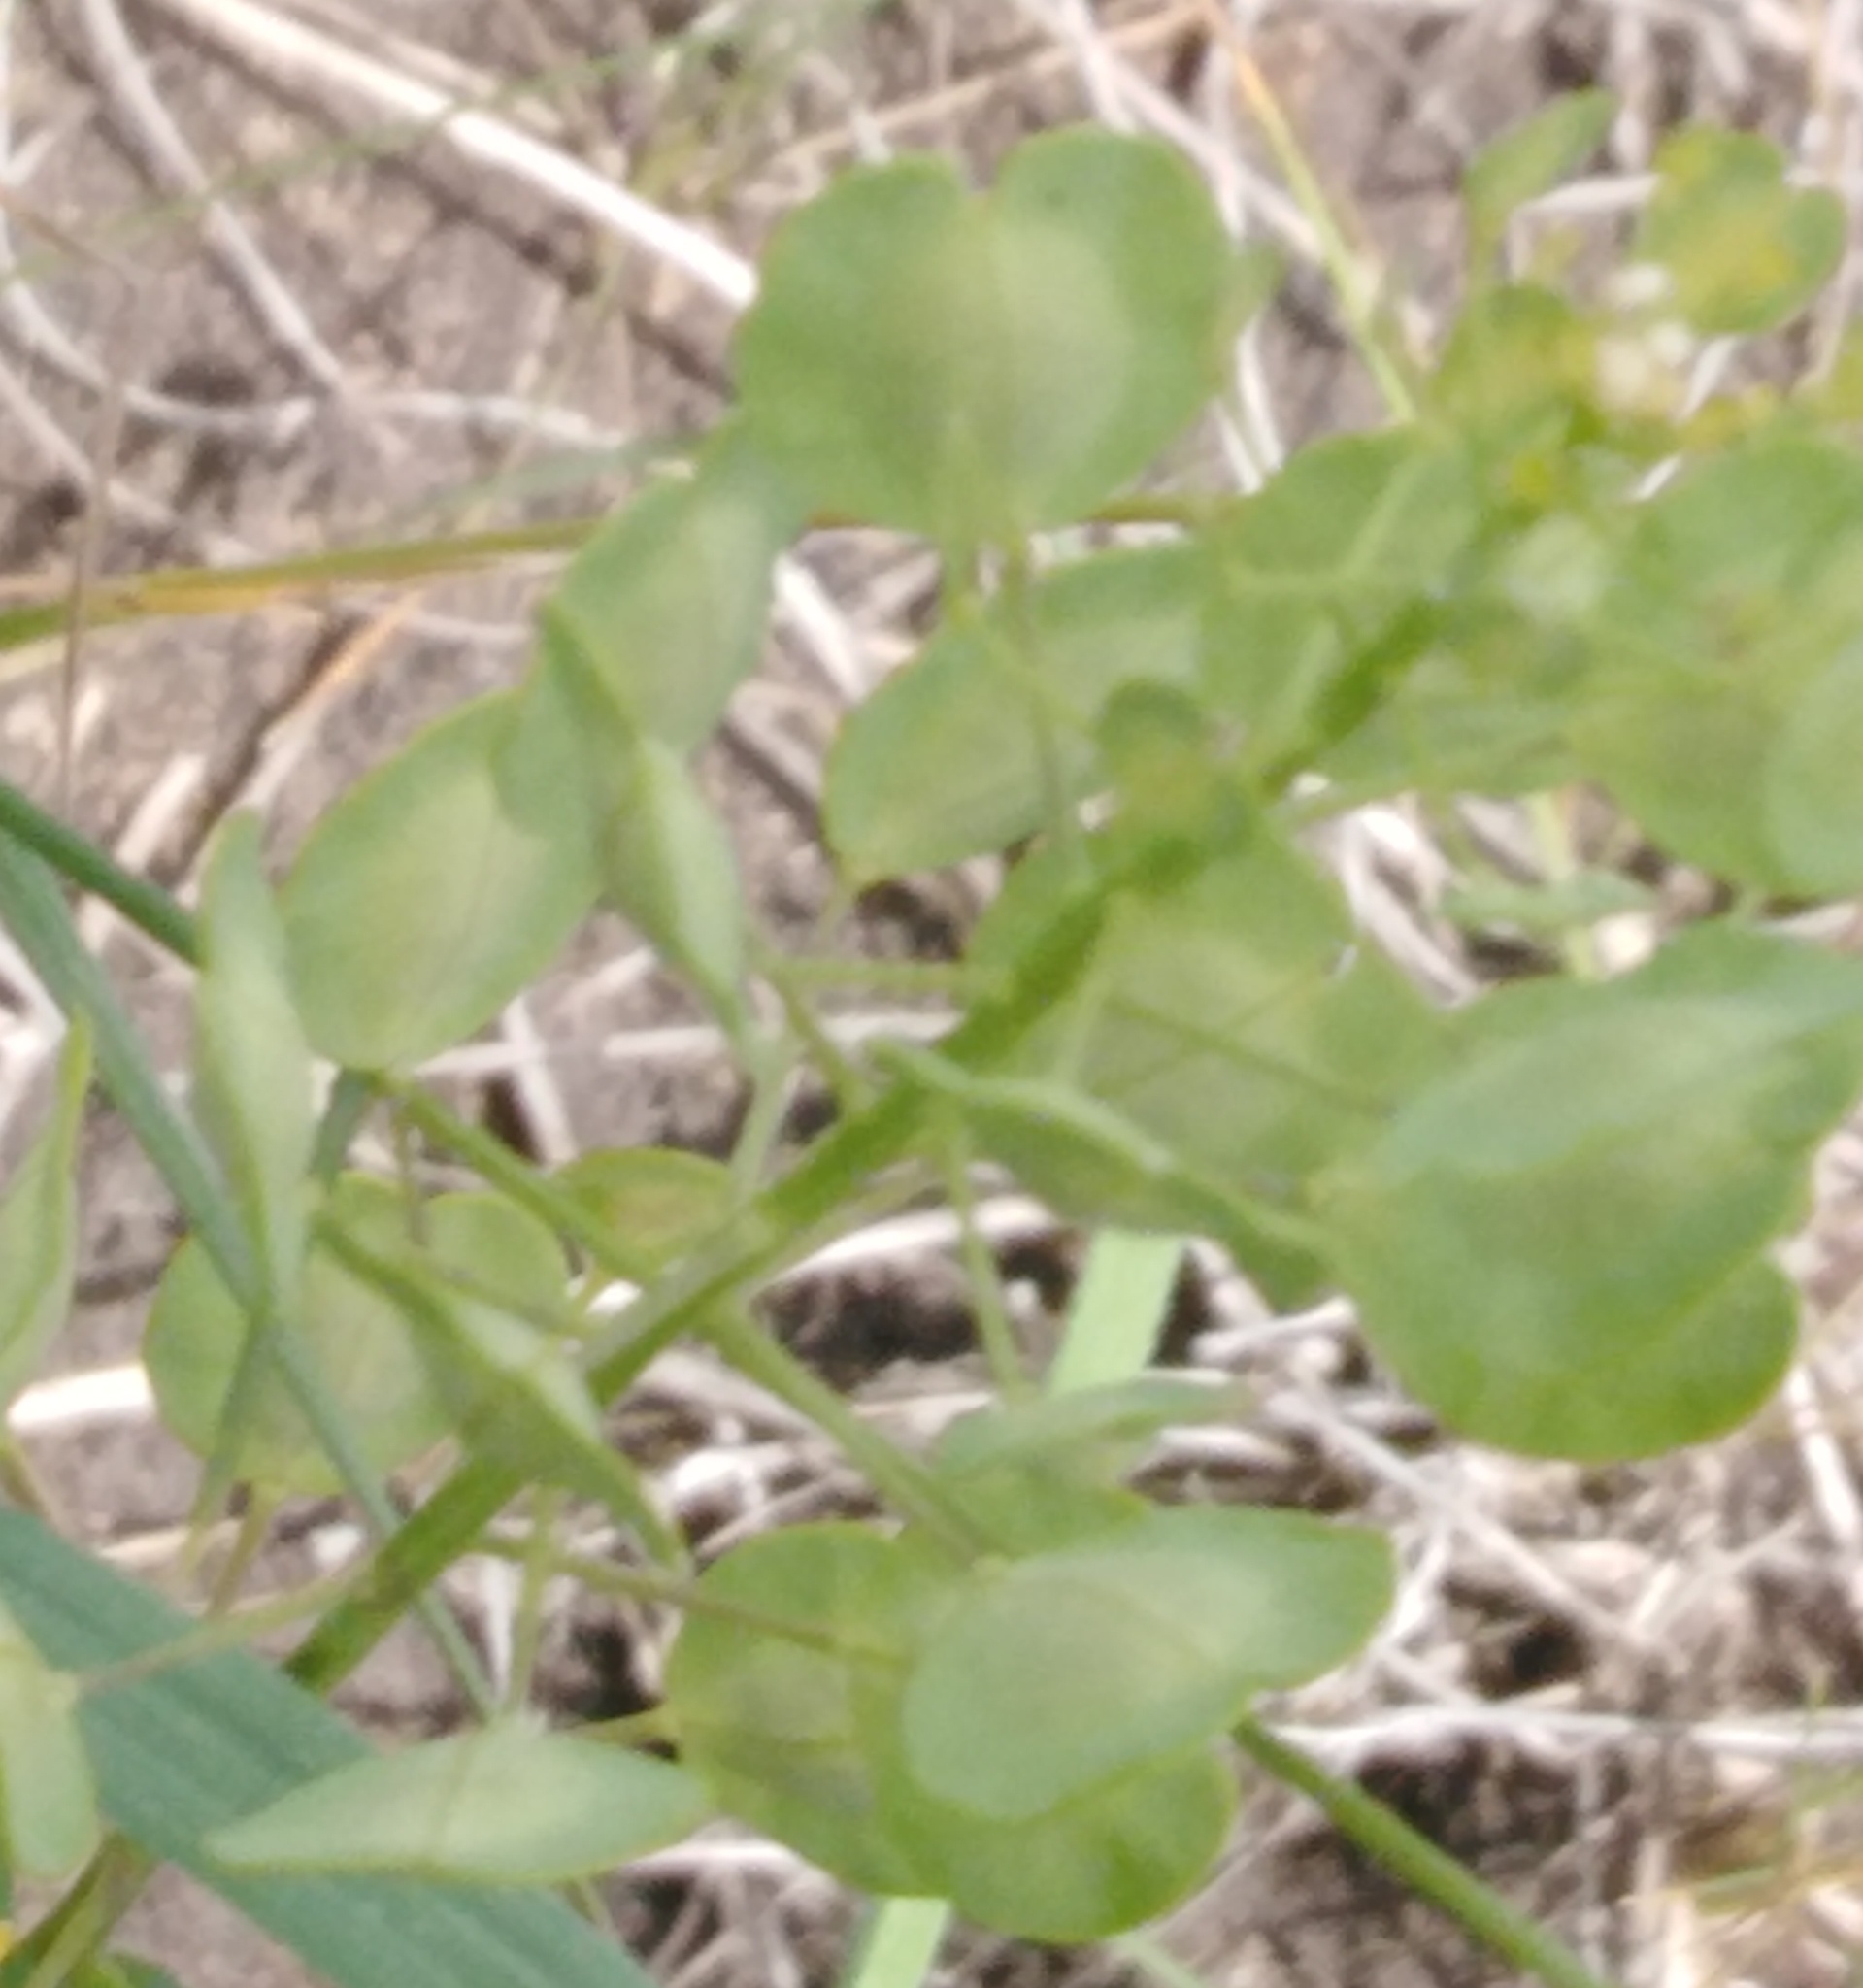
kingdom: Plantae
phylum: Tracheophyta
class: Magnoliopsida
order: Brassicales
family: Brassicaceae
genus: Thlaspi
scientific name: Thlaspi arvense
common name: Field pennycress
